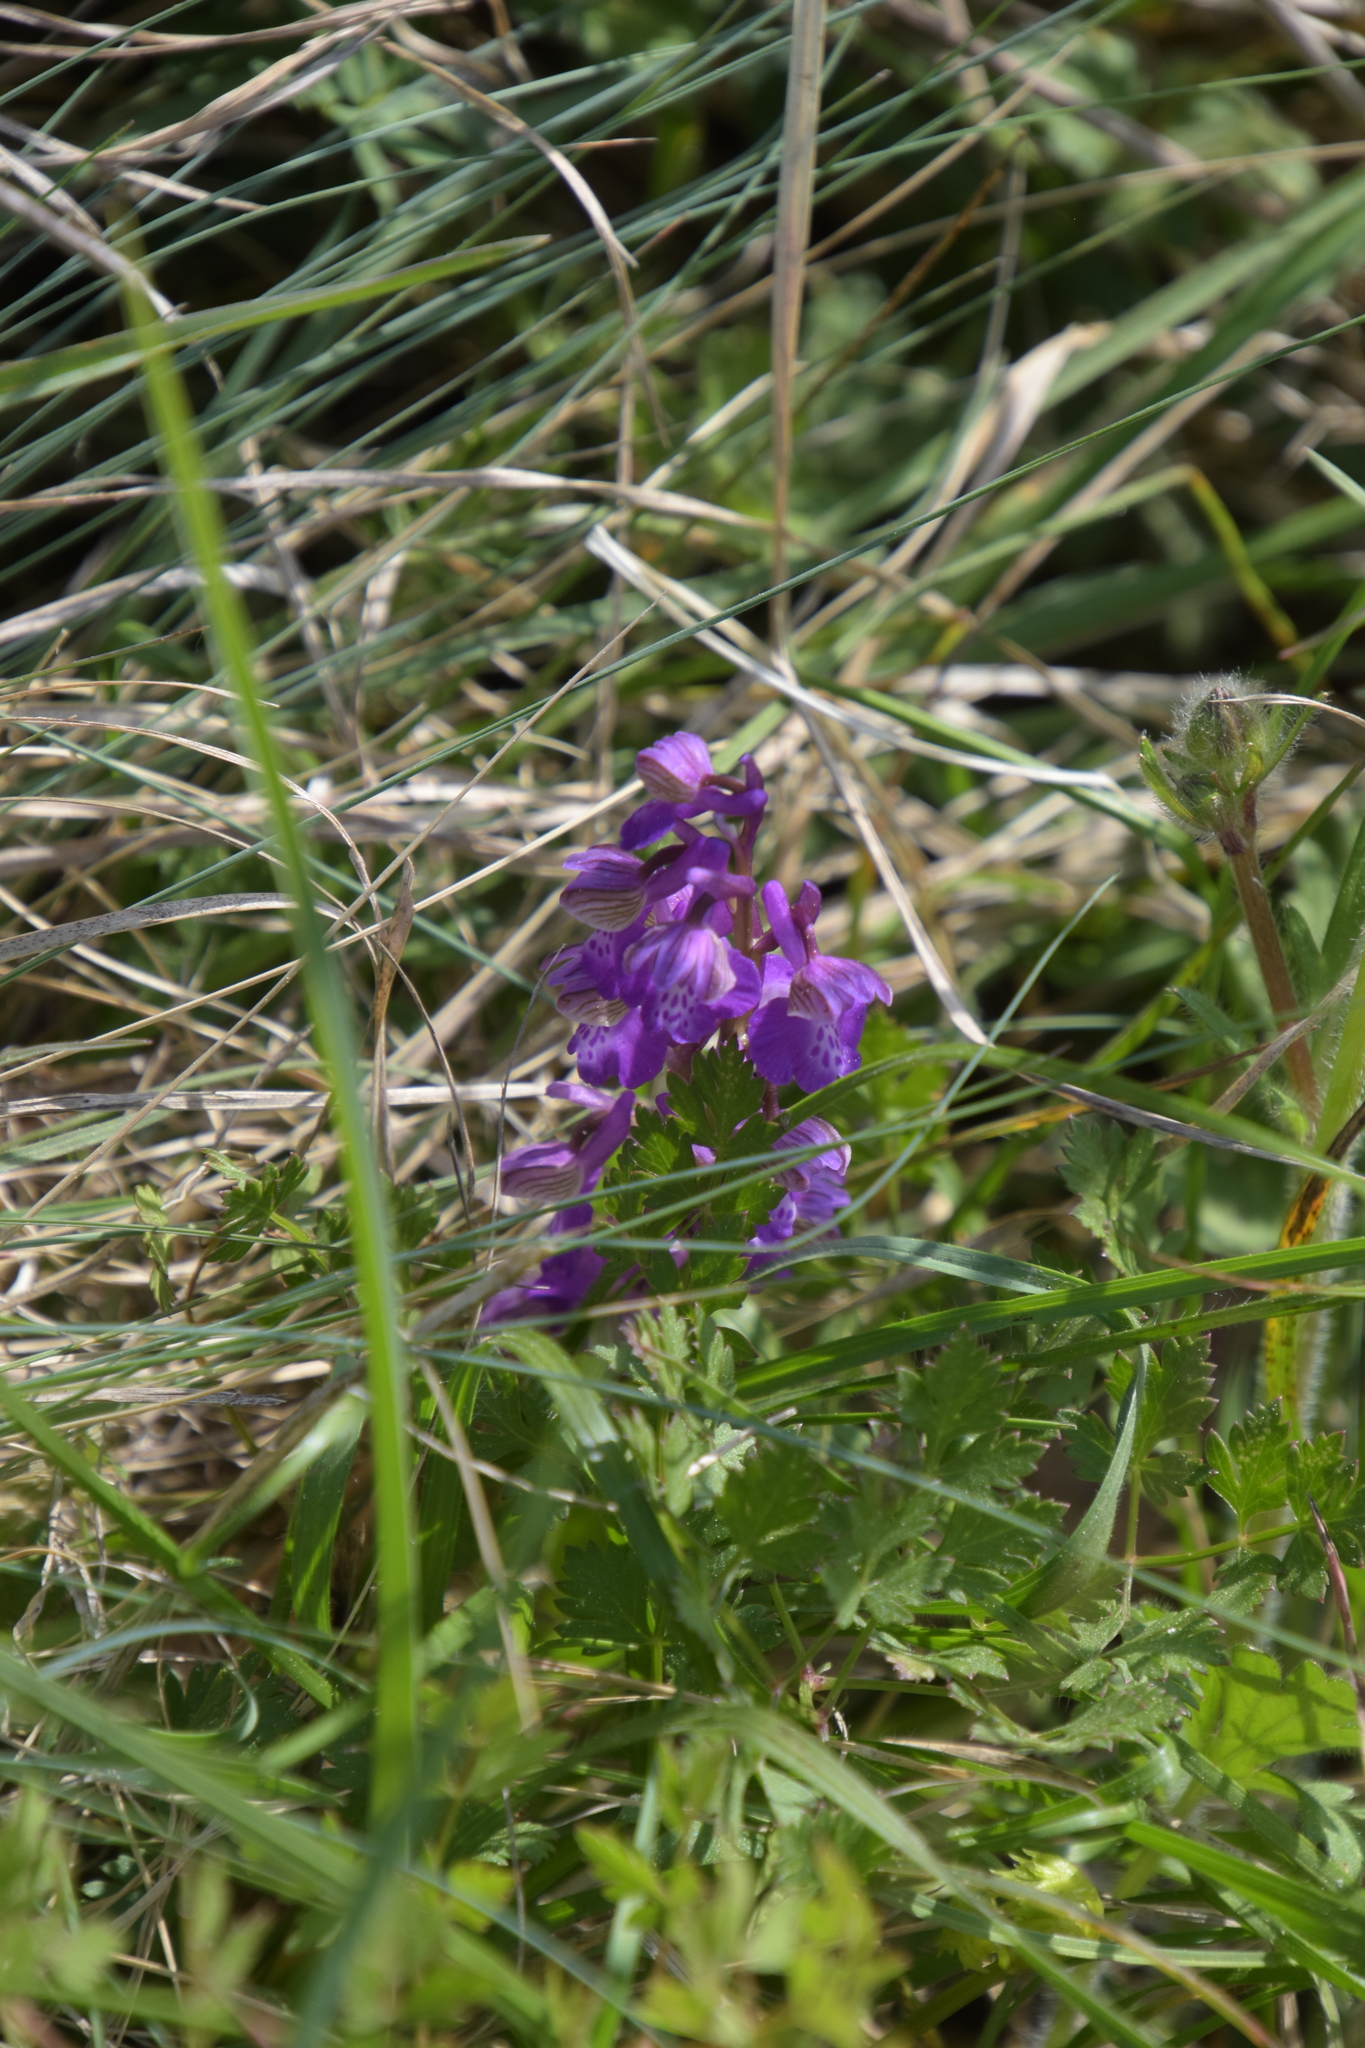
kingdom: Plantae
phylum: Tracheophyta
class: Liliopsida
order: Asparagales
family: Orchidaceae
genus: Anacamptis
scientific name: Anacamptis morio
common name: Green-winged orchid
